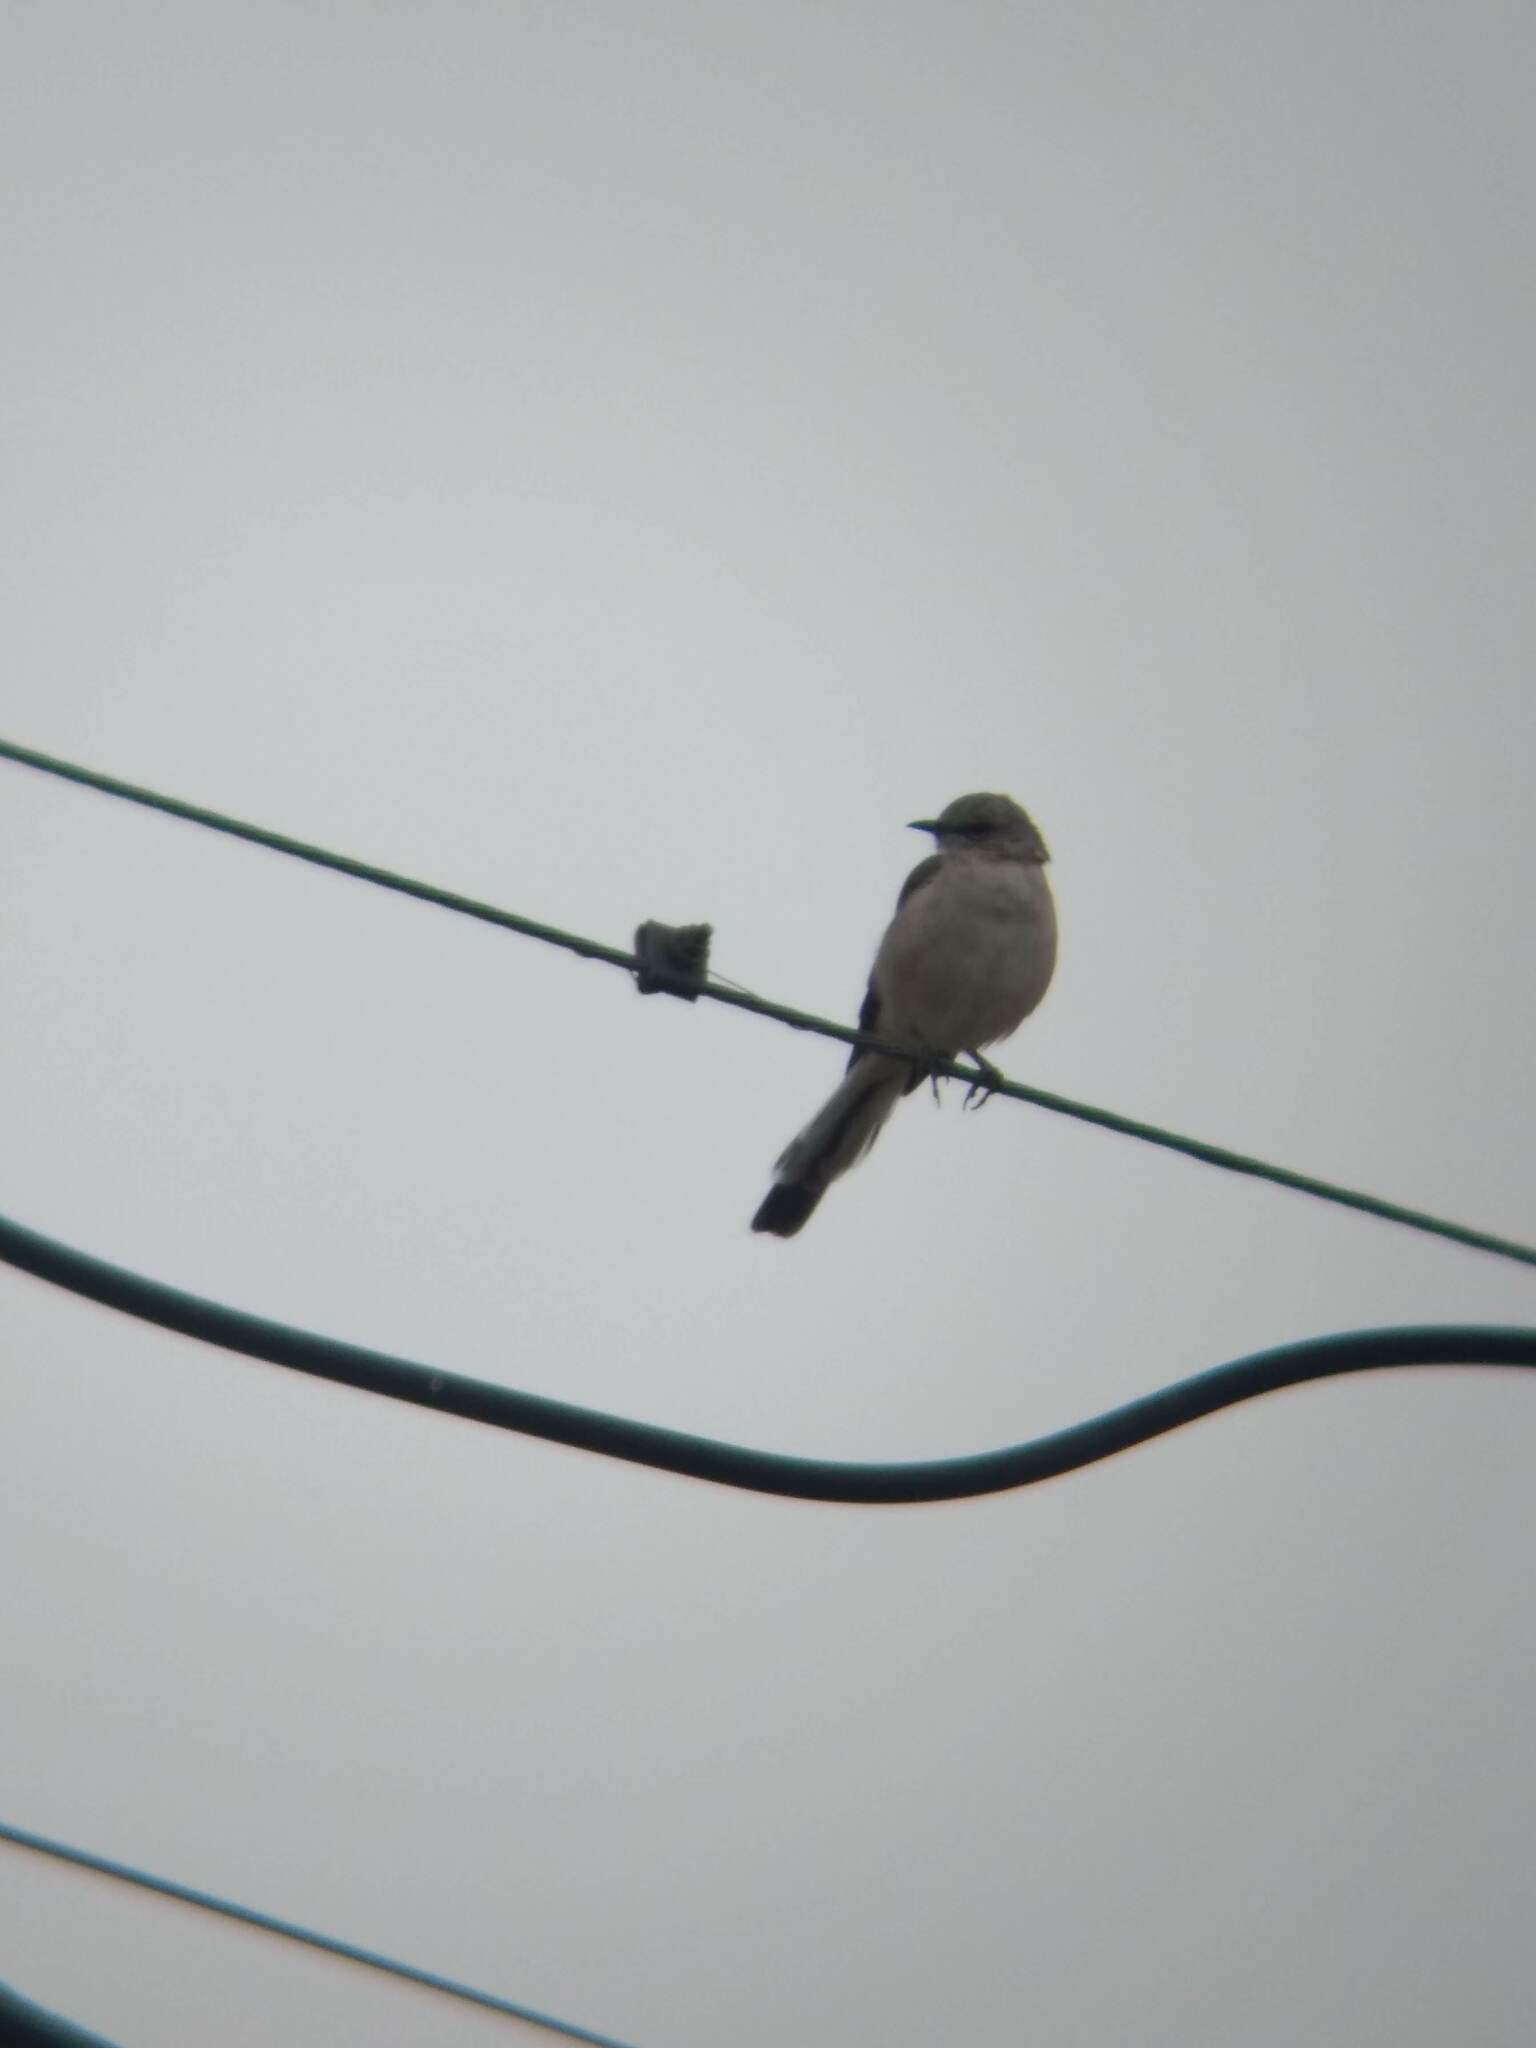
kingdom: Animalia
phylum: Chordata
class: Aves
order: Passeriformes
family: Mimidae
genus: Mimus
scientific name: Mimus polyglottos
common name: Northern mockingbird
